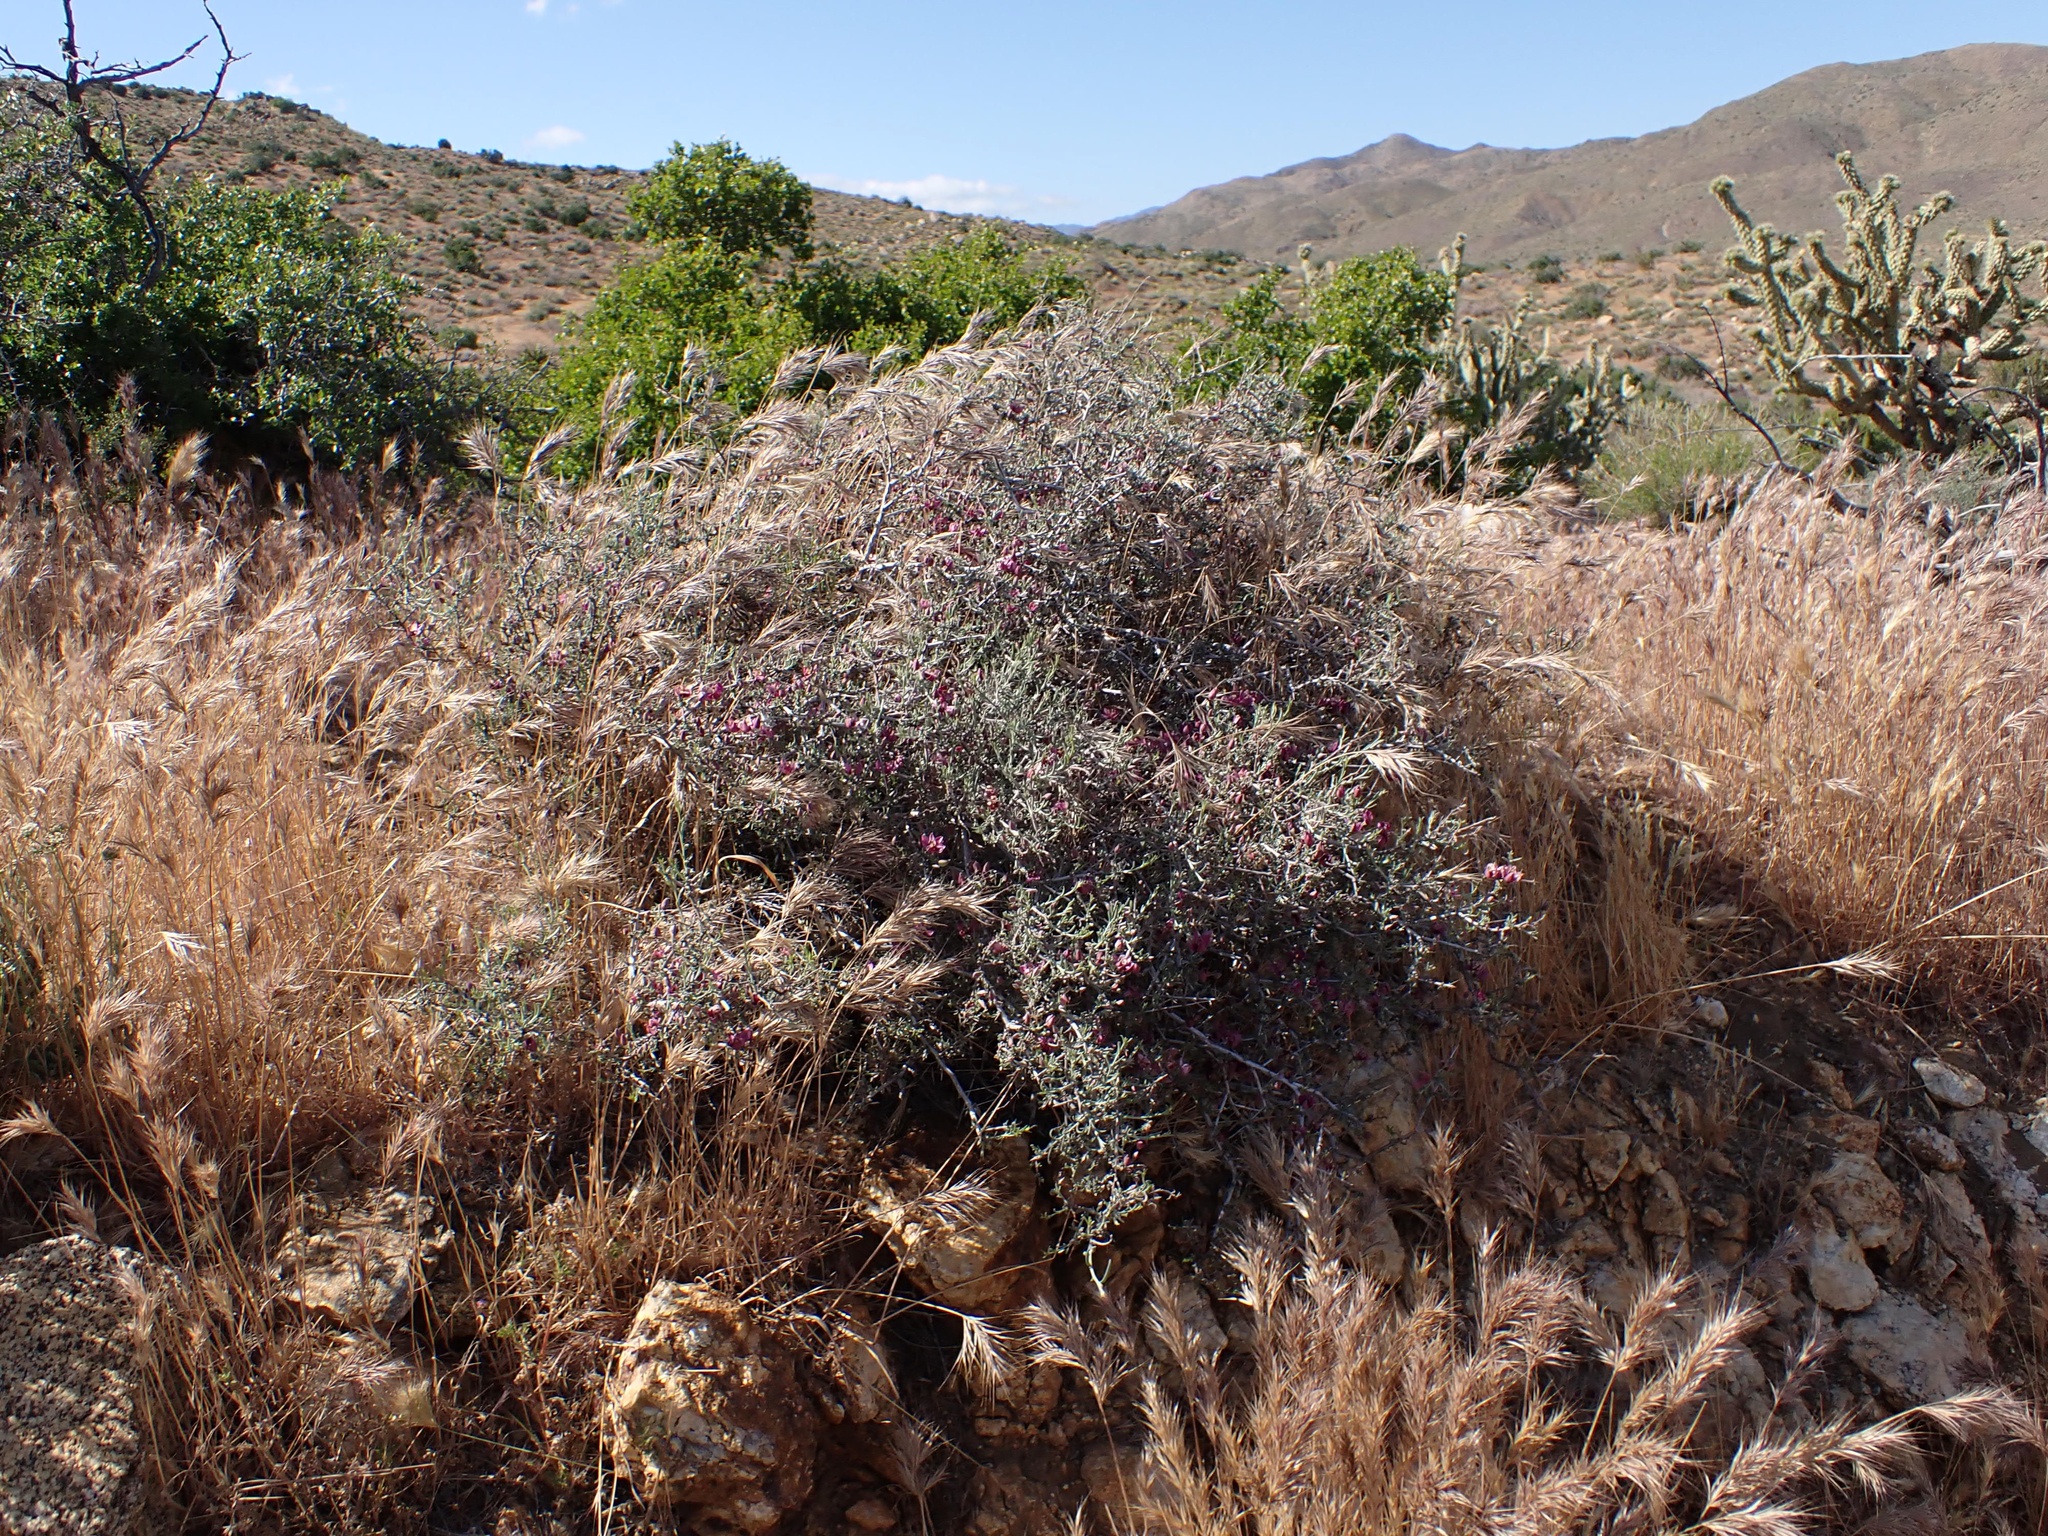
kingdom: Plantae
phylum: Tracheophyta
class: Magnoliopsida
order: Zygophyllales
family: Krameriaceae
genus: Krameria
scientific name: Krameria erecta
